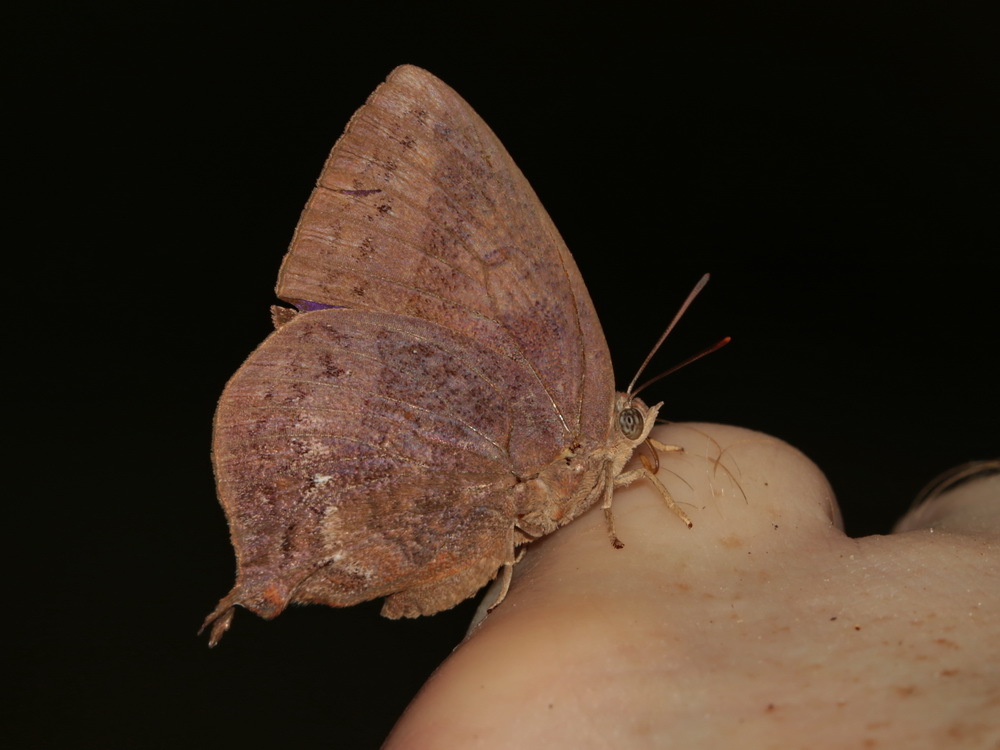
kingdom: Animalia
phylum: Arthropoda
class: Insecta
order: Lepidoptera
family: Lycaenidae
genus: Amblypodia
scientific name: Amblypodia anita
